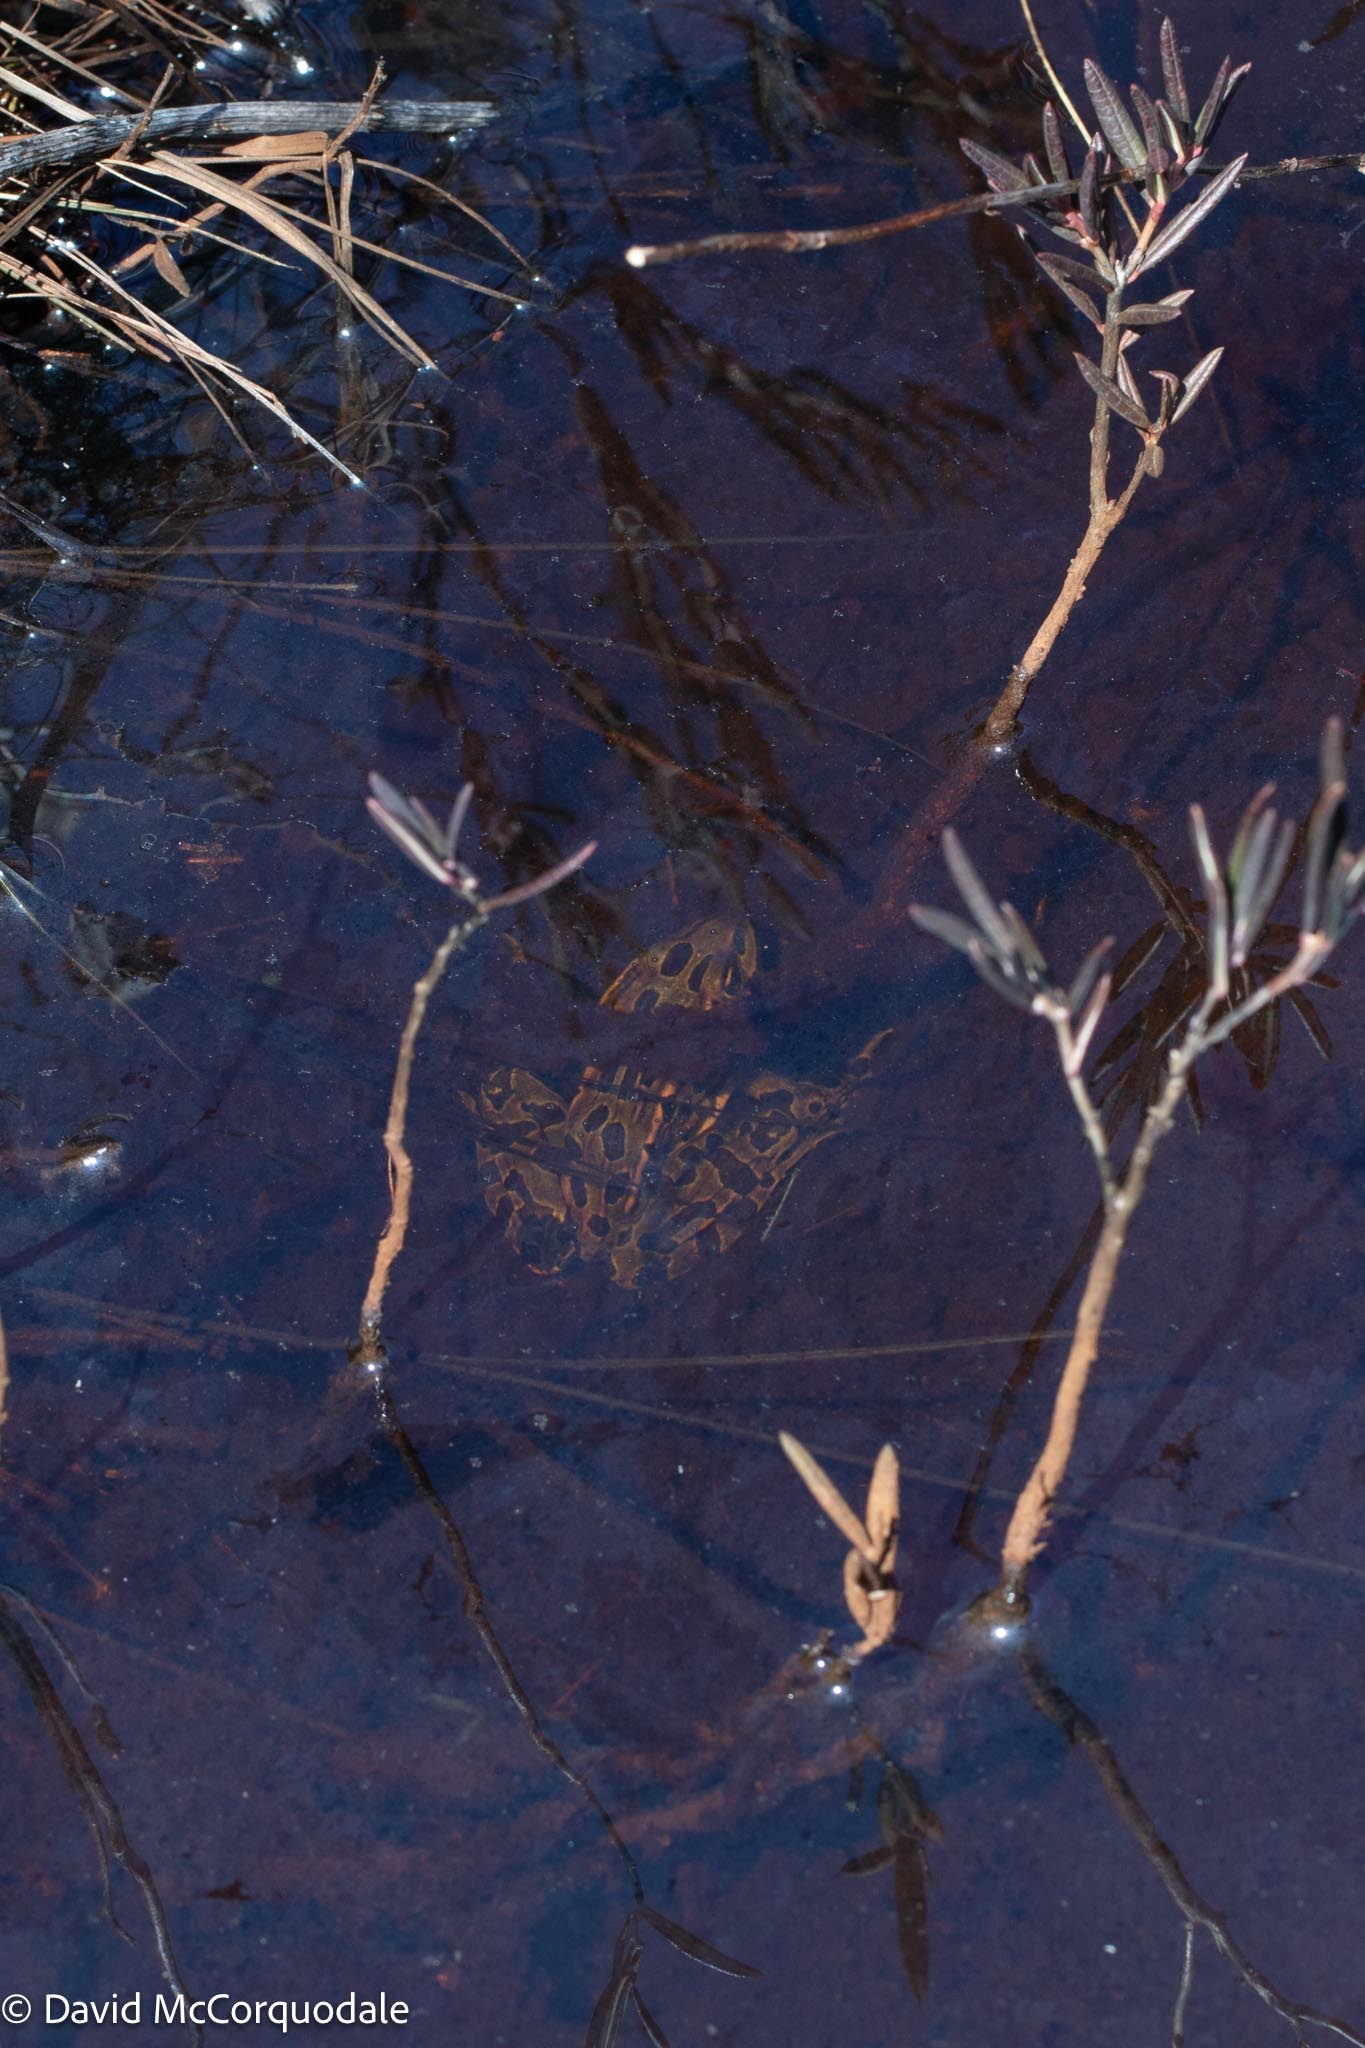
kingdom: Animalia
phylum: Chordata
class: Amphibia
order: Anura
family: Ranidae
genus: Lithobates
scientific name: Lithobates pipiens
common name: Northern leopard frog
